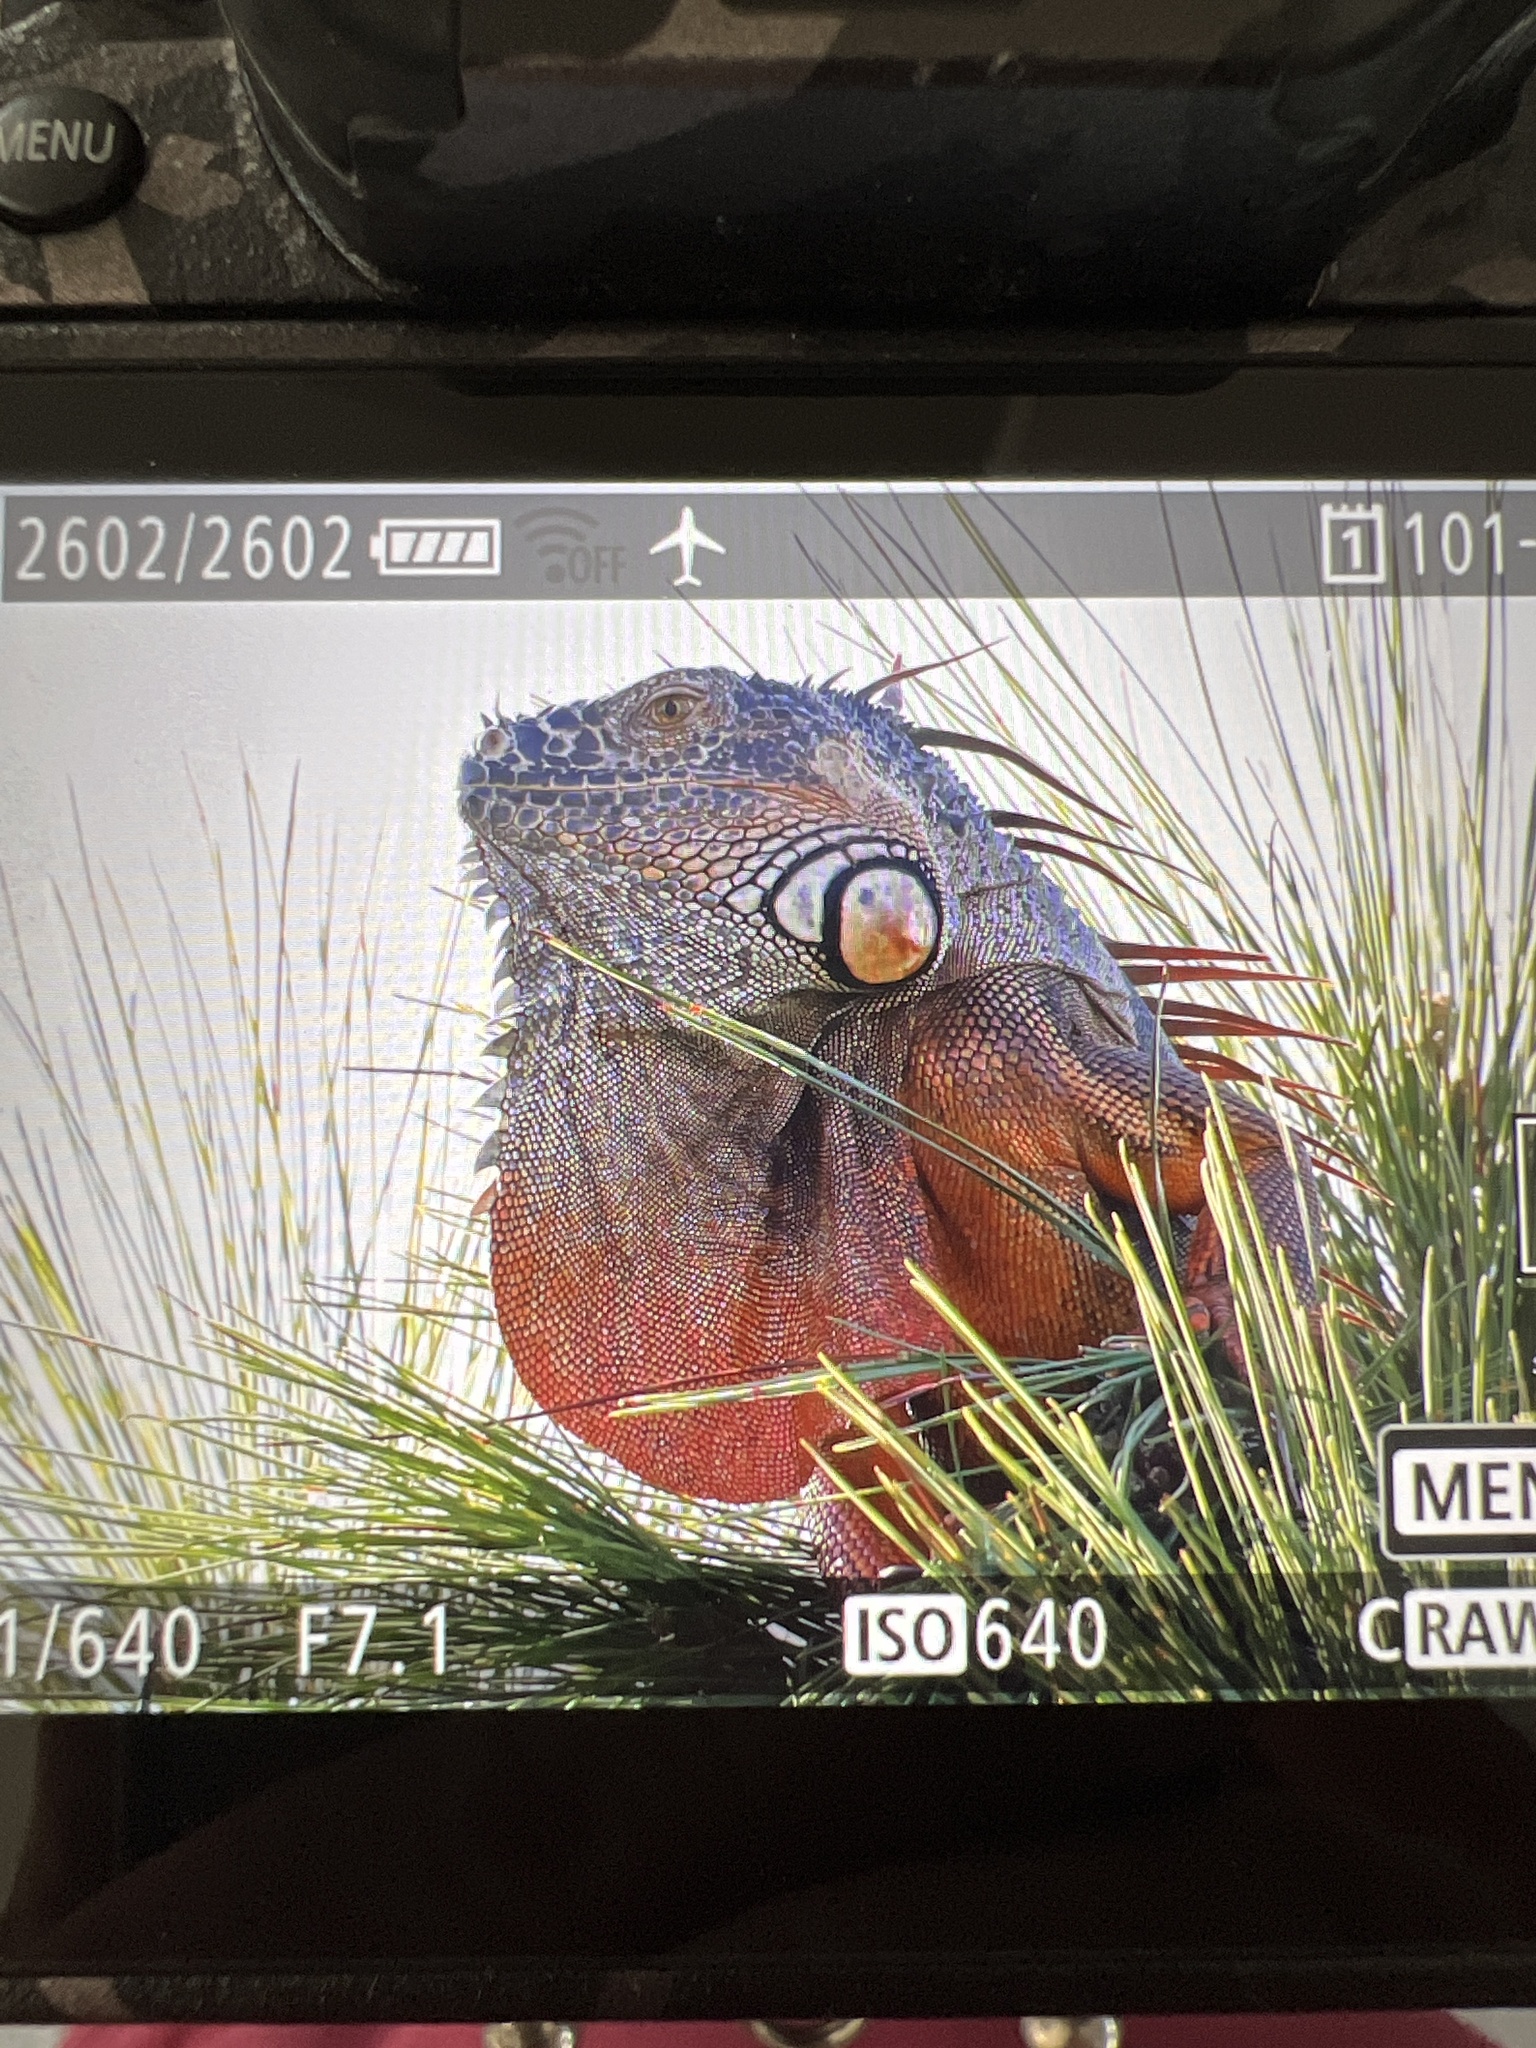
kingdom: Animalia
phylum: Chordata
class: Squamata
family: Iguanidae
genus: Iguana
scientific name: Iguana iguana
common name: Green iguana
